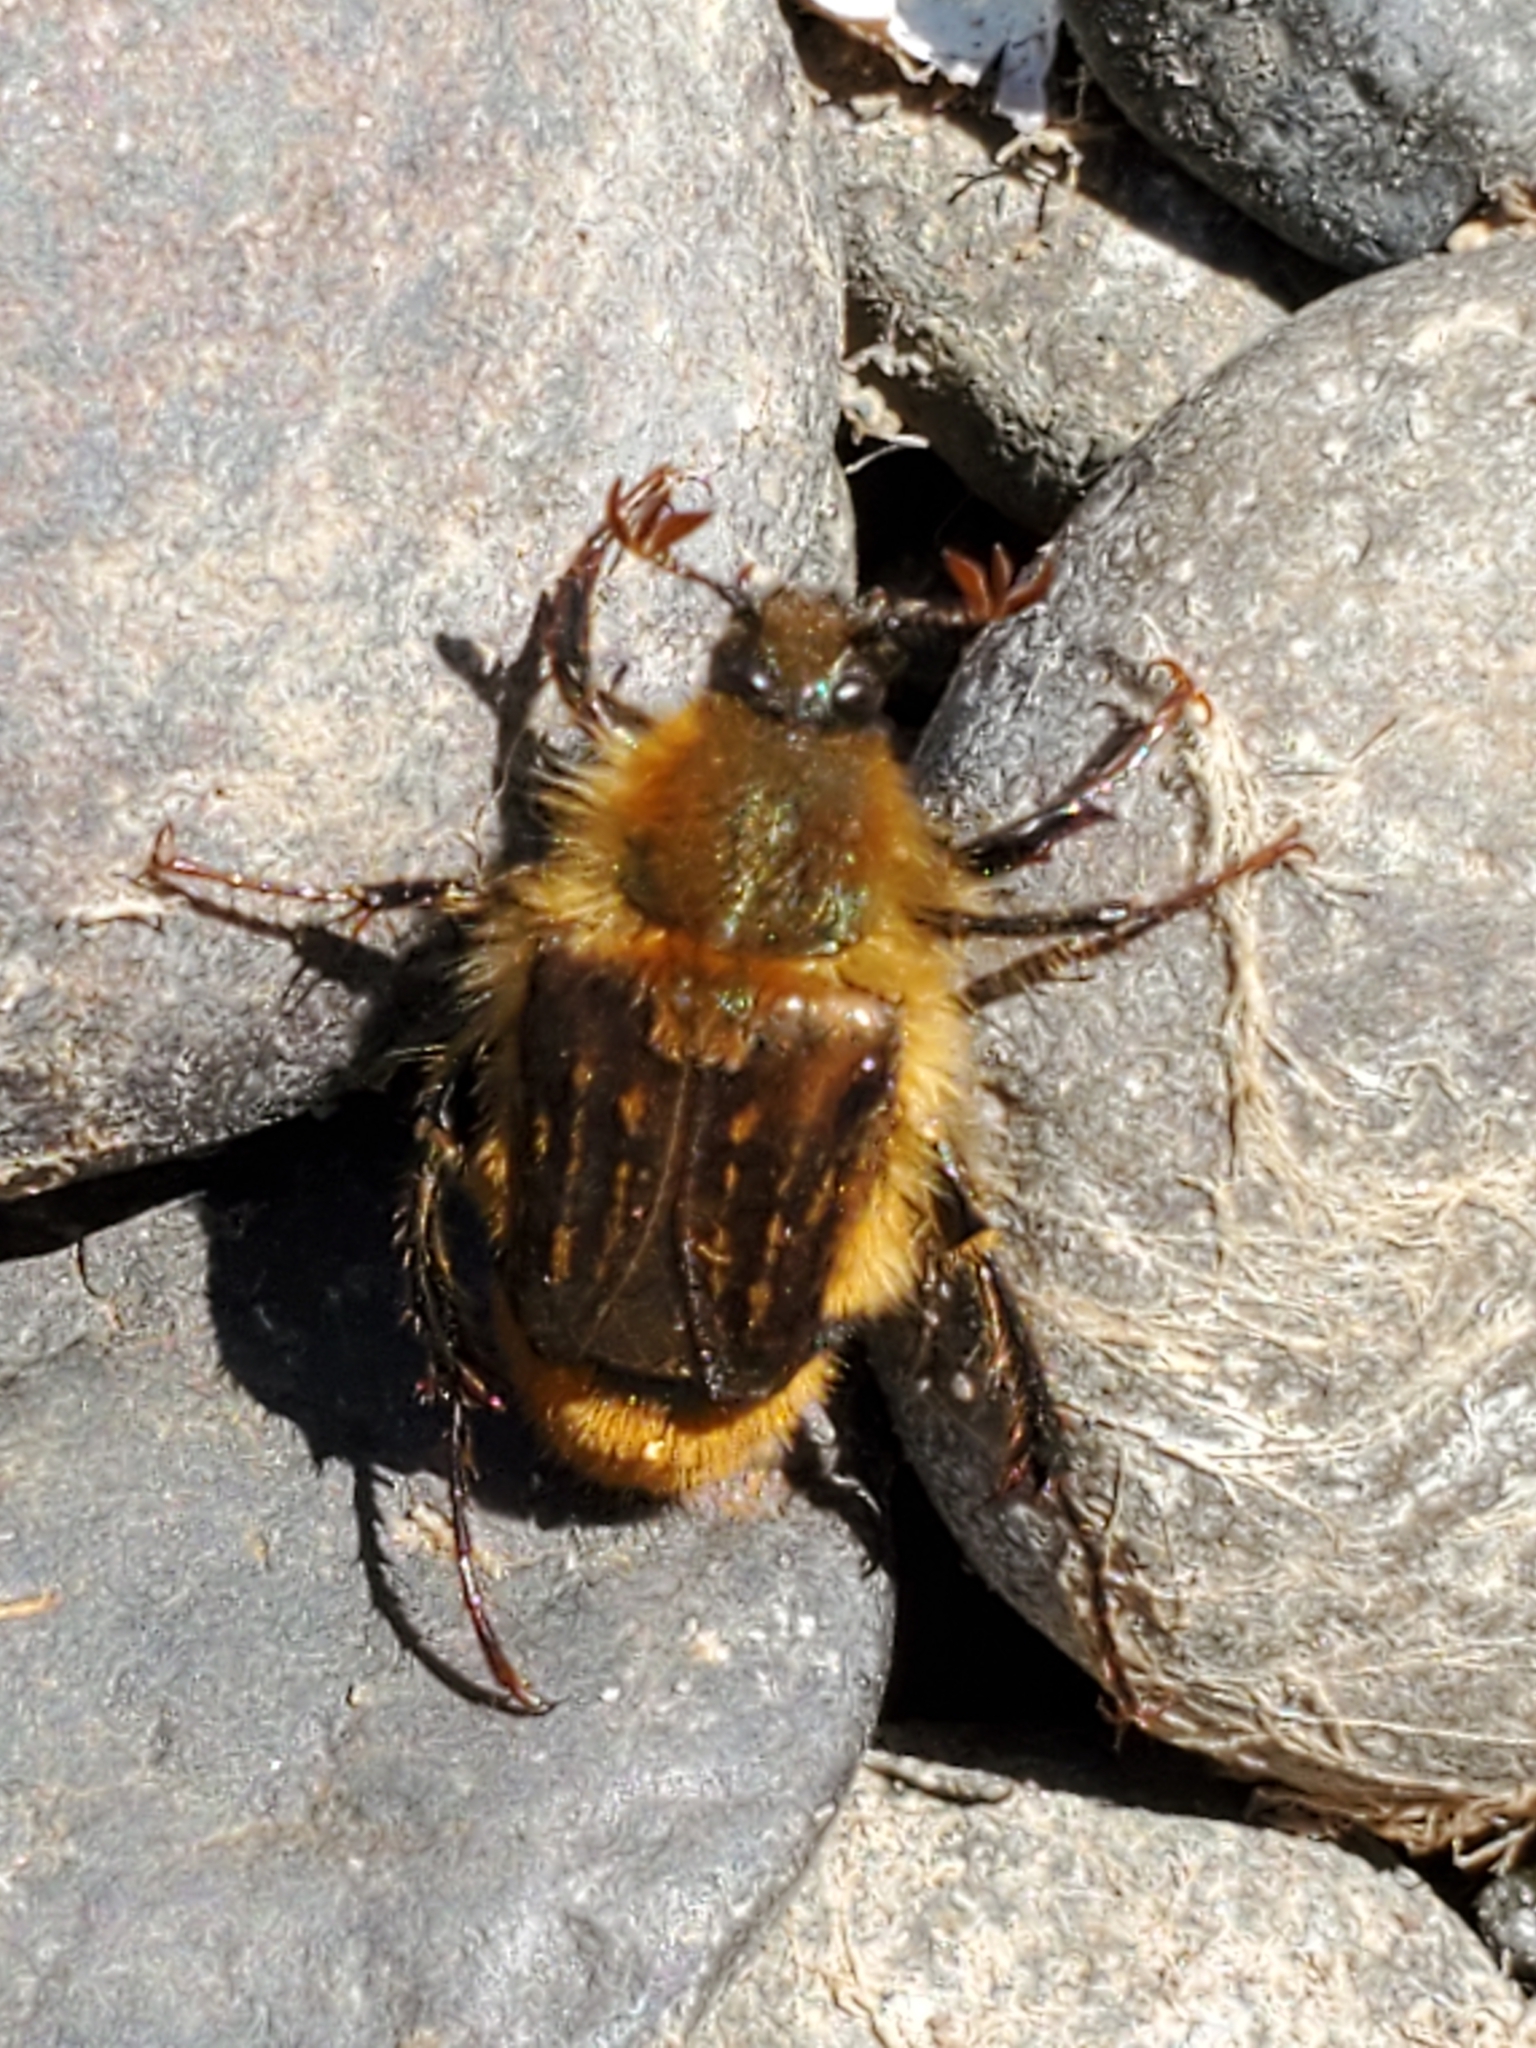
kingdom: Animalia
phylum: Arthropoda
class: Insecta
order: Coleoptera
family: Glaphyridae
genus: Lichnanthe
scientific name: Lichnanthe rathvoni
